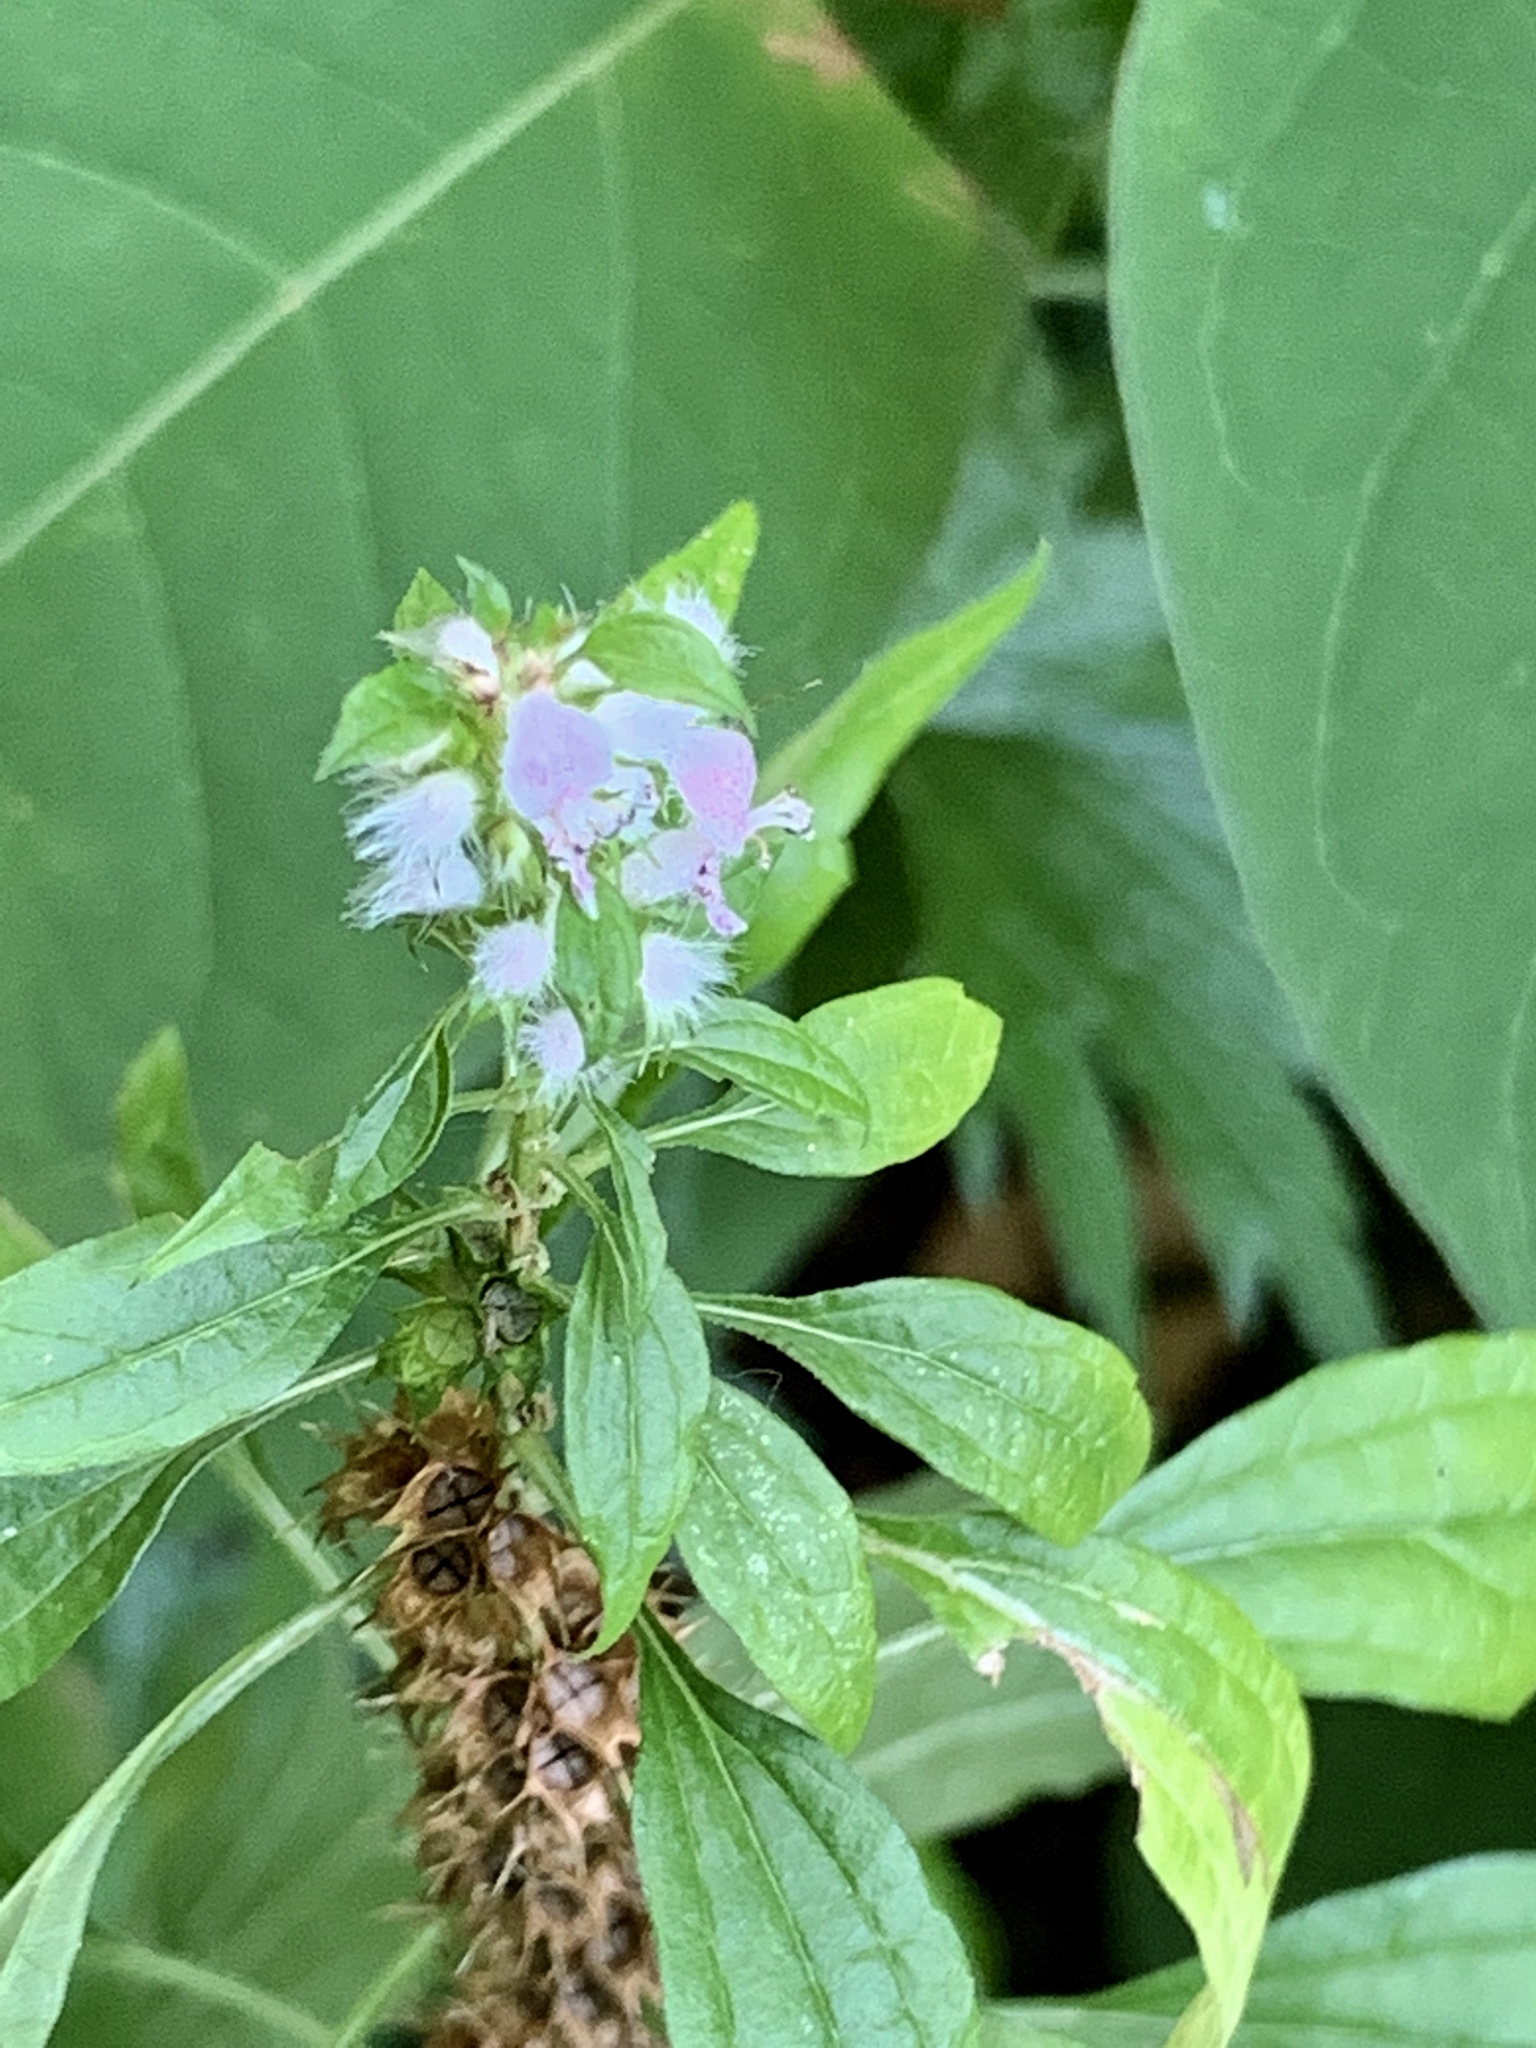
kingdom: Plantae
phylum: Tracheophyta
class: Magnoliopsida
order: Lamiales
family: Lamiaceae
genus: Leonurus
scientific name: Leonurus cardiaca
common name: Motherwort
